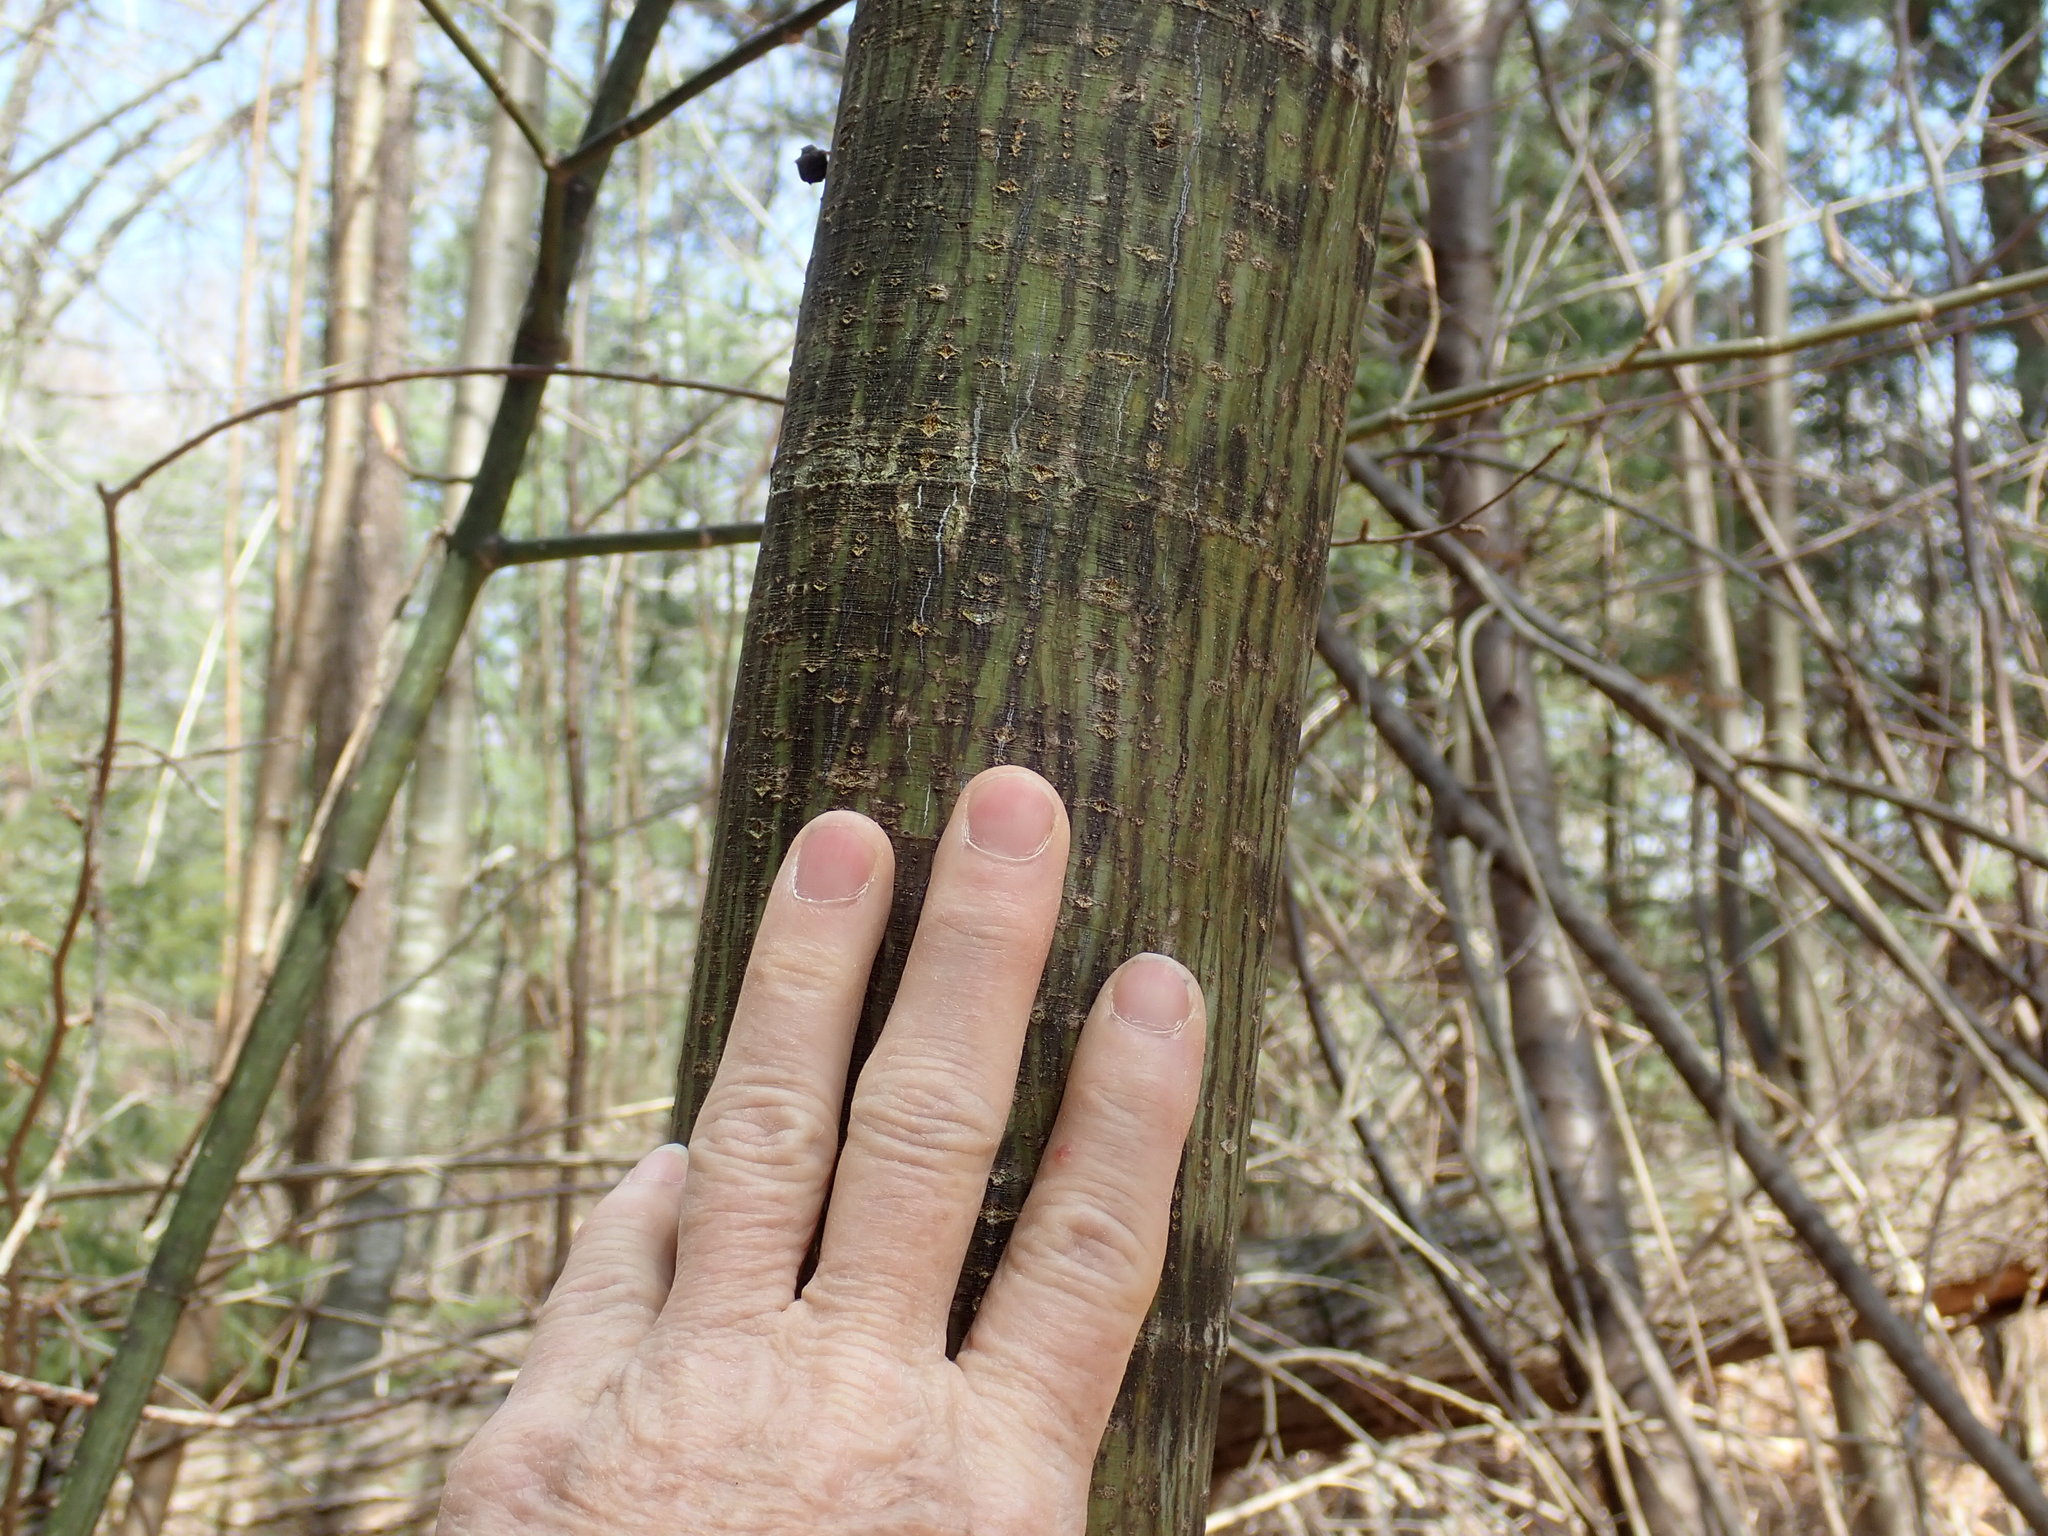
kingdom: Plantae
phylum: Tracheophyta
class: Magnoliopsida
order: Sapindales
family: Sapindaceae
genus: Acer
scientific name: Acer pensylvanicum
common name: Moosewood
